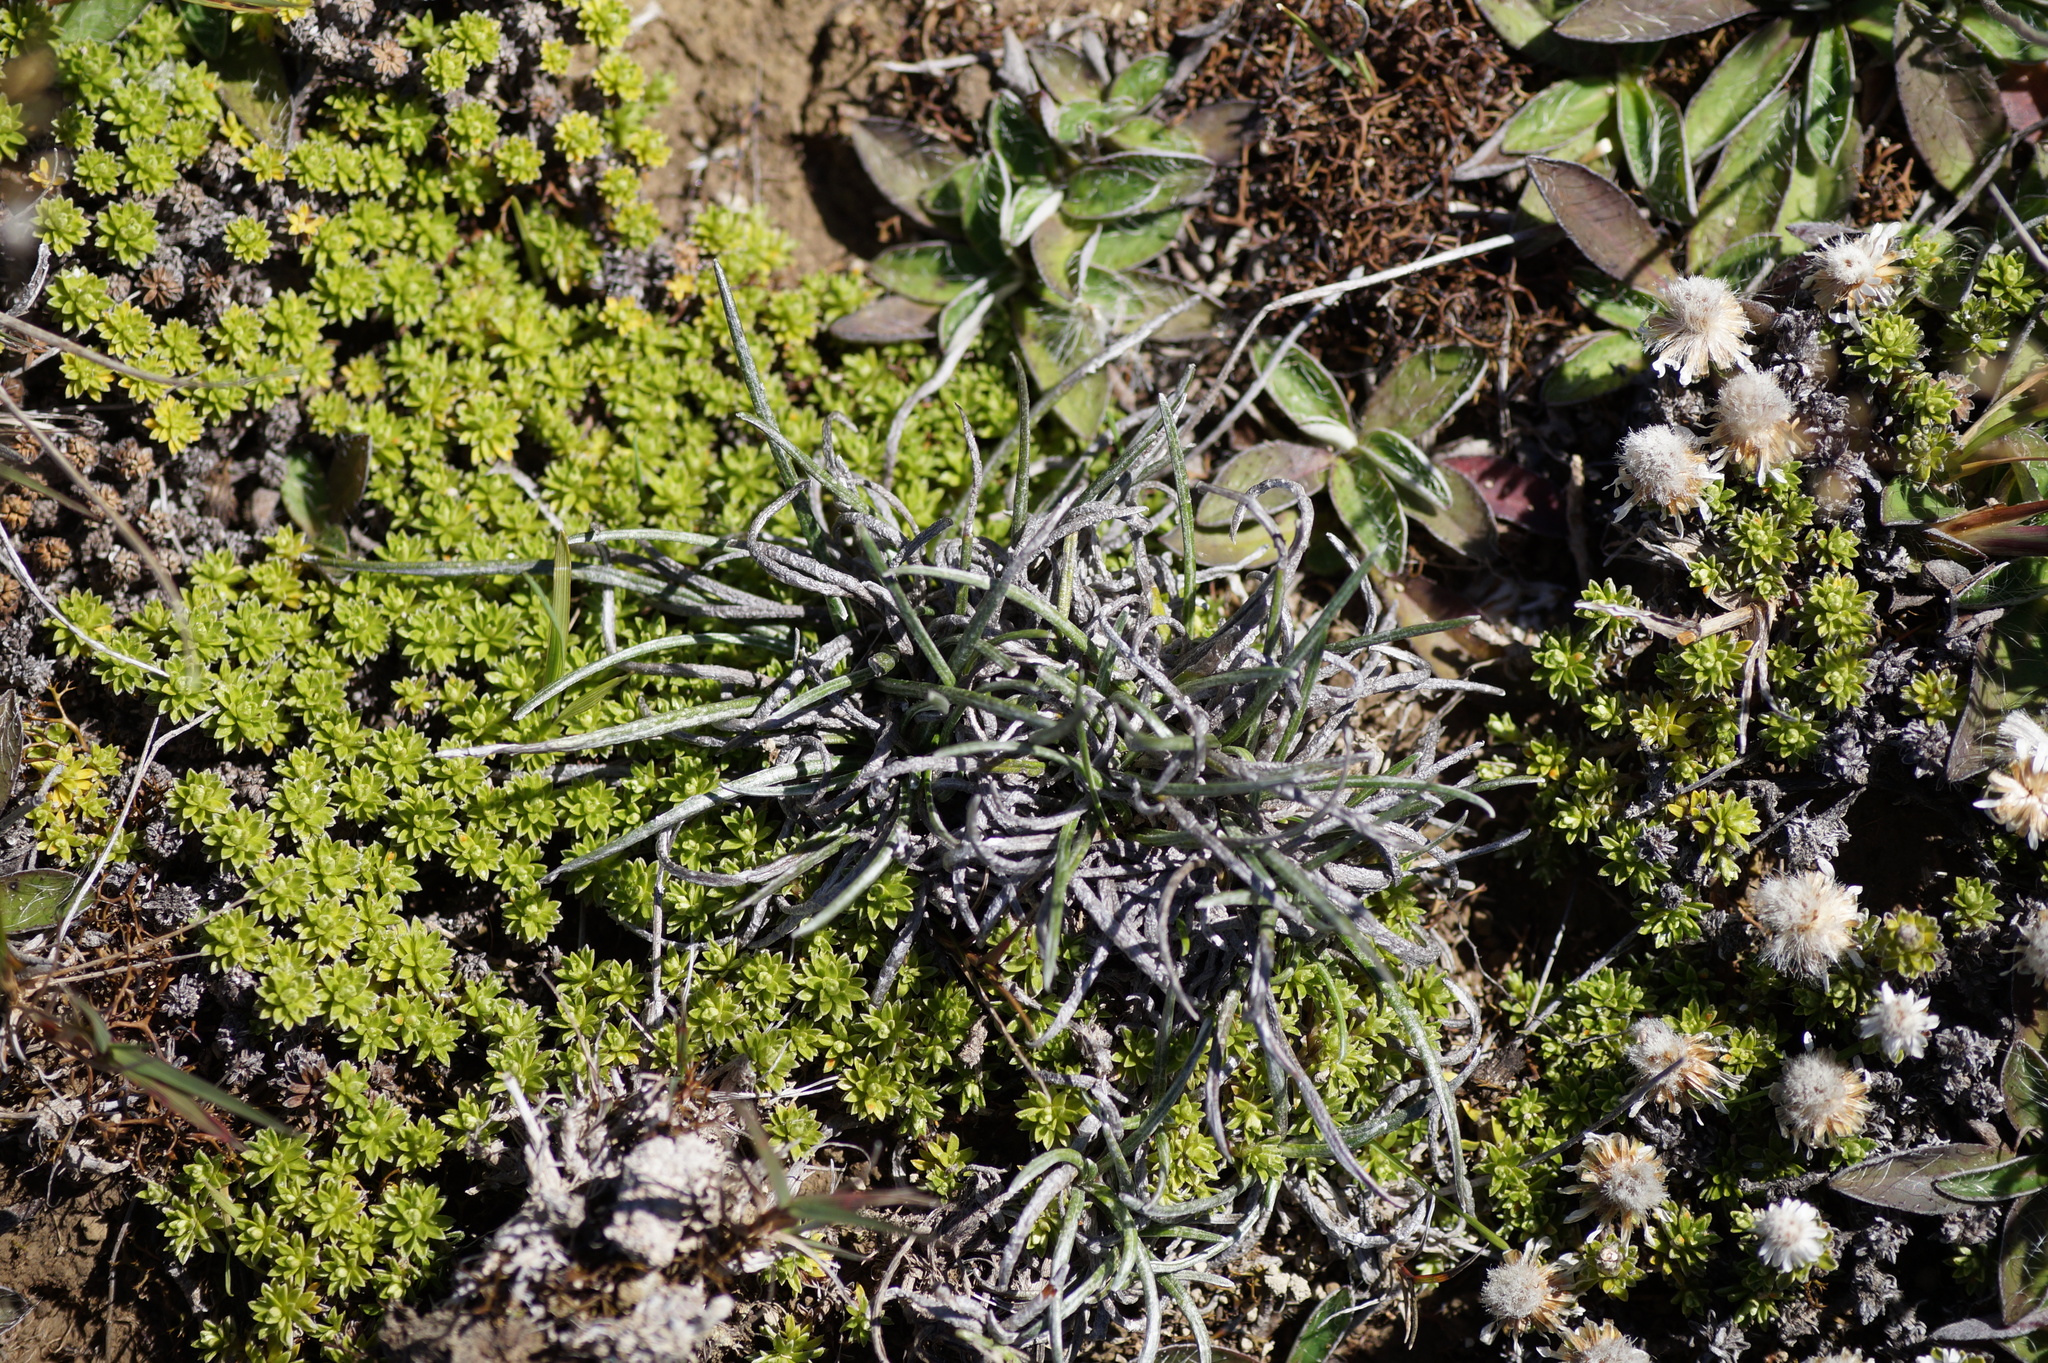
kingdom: Plantae
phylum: Tracheophyta
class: Magnoliopsida
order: Asterales
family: Asteraceae
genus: Celmisia
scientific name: Celmisia gracilenta
